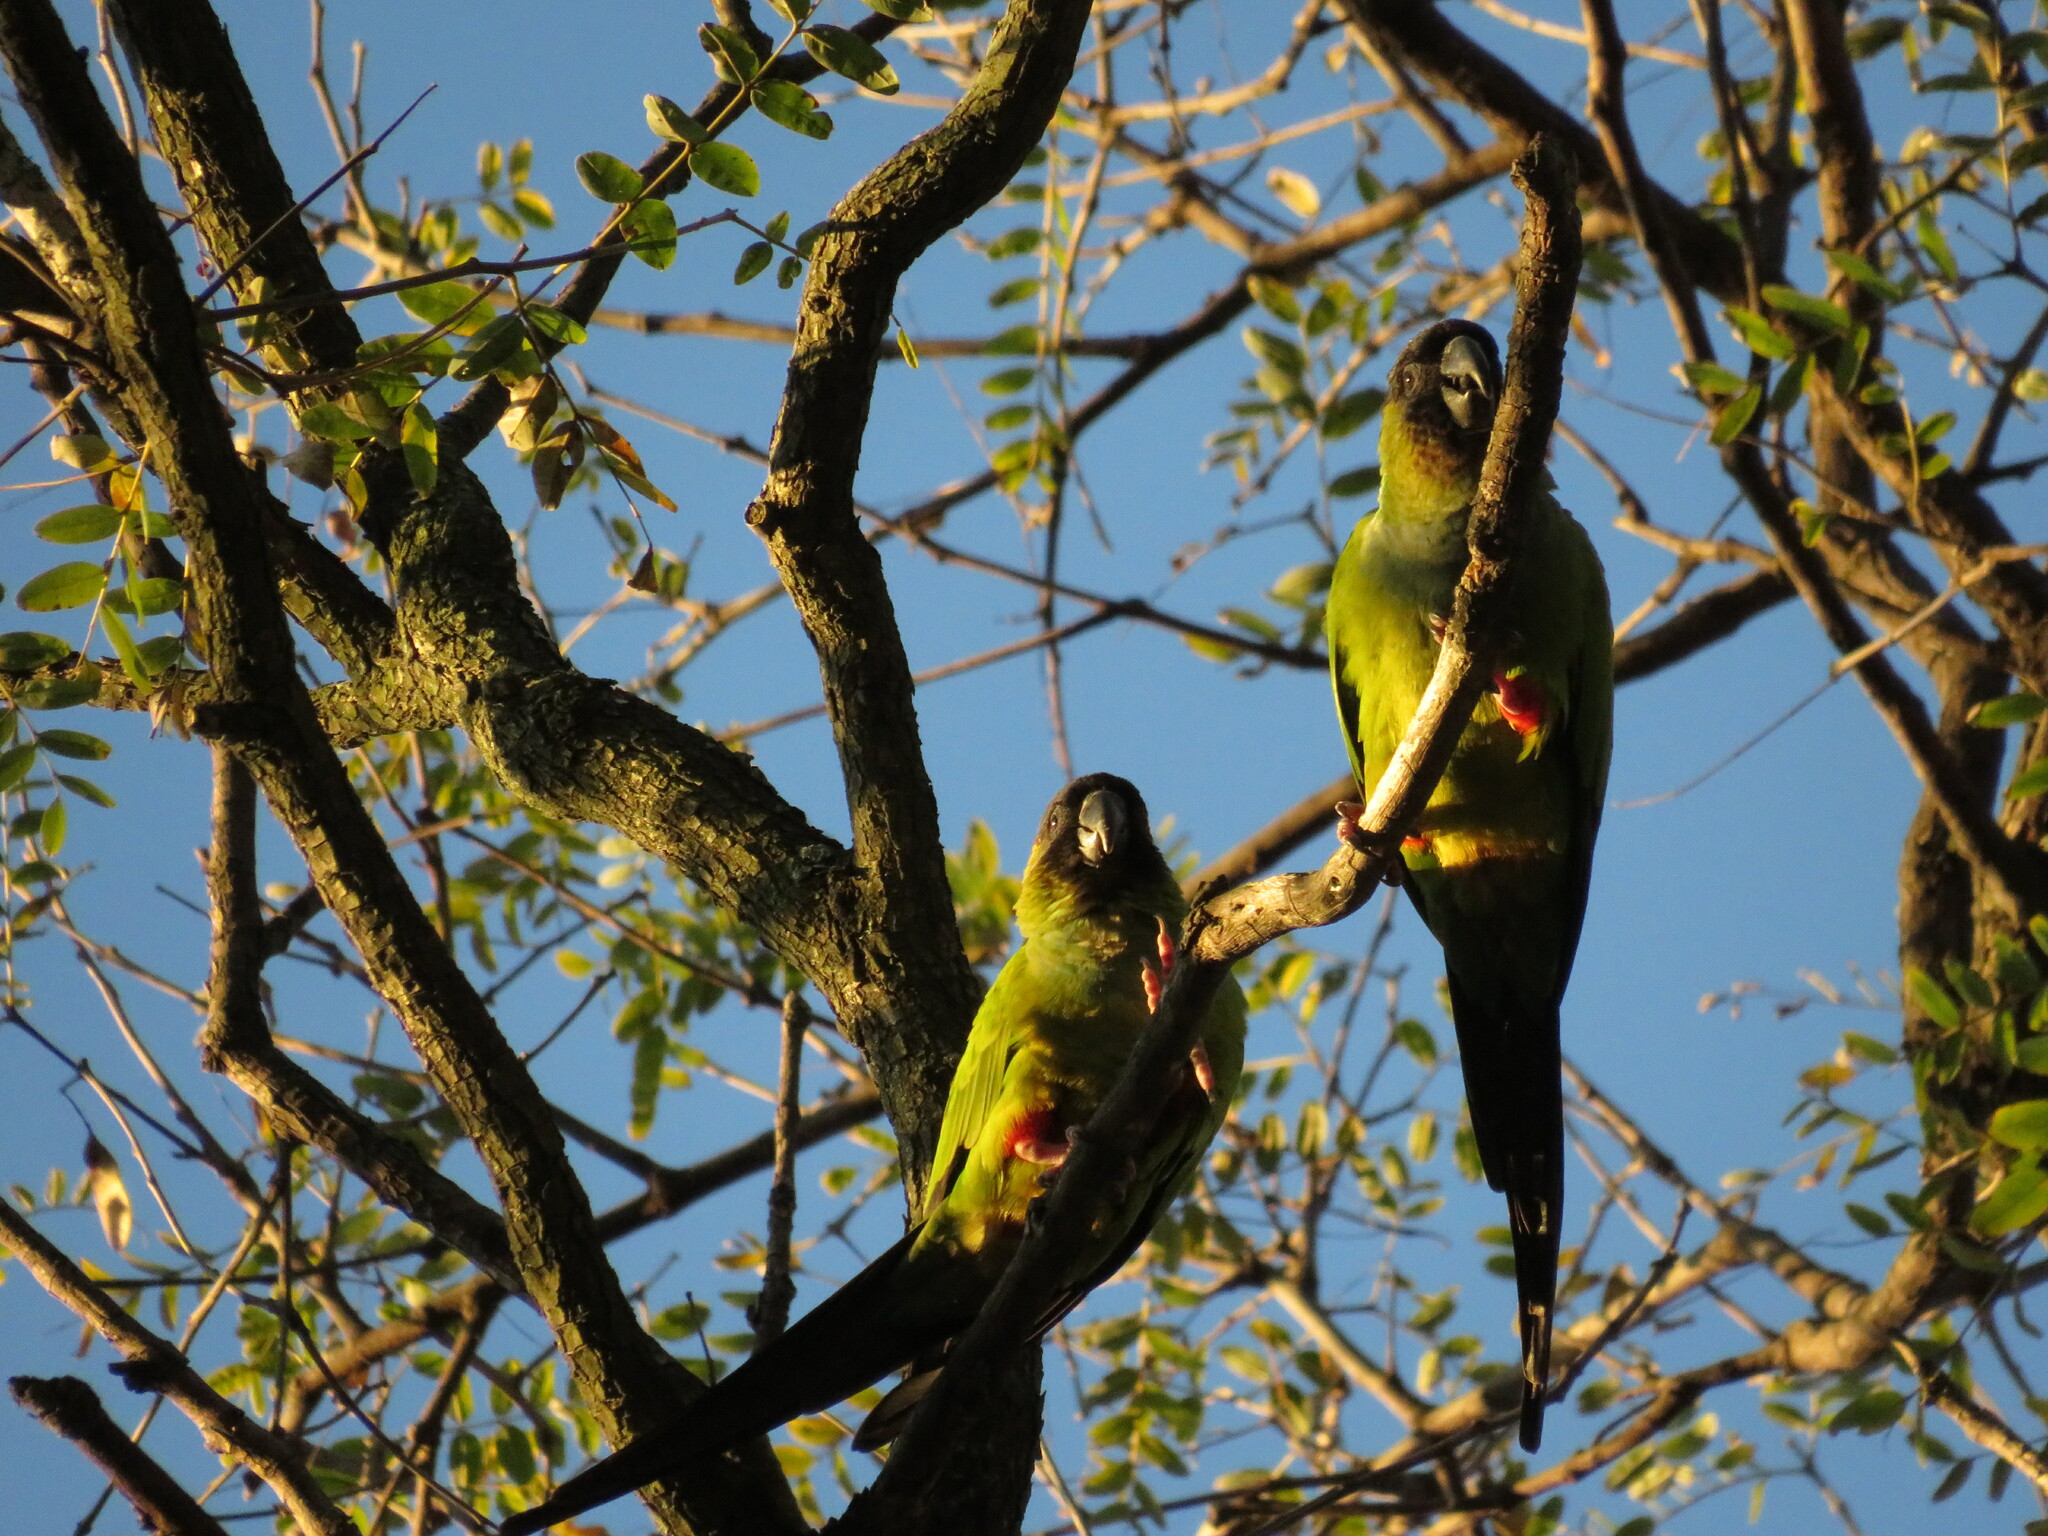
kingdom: Animalia
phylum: Chordata
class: Aves
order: Psittaciformes
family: Psittacidae
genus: Nandayus
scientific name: Nandayus nenday
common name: Nanday parakeet
